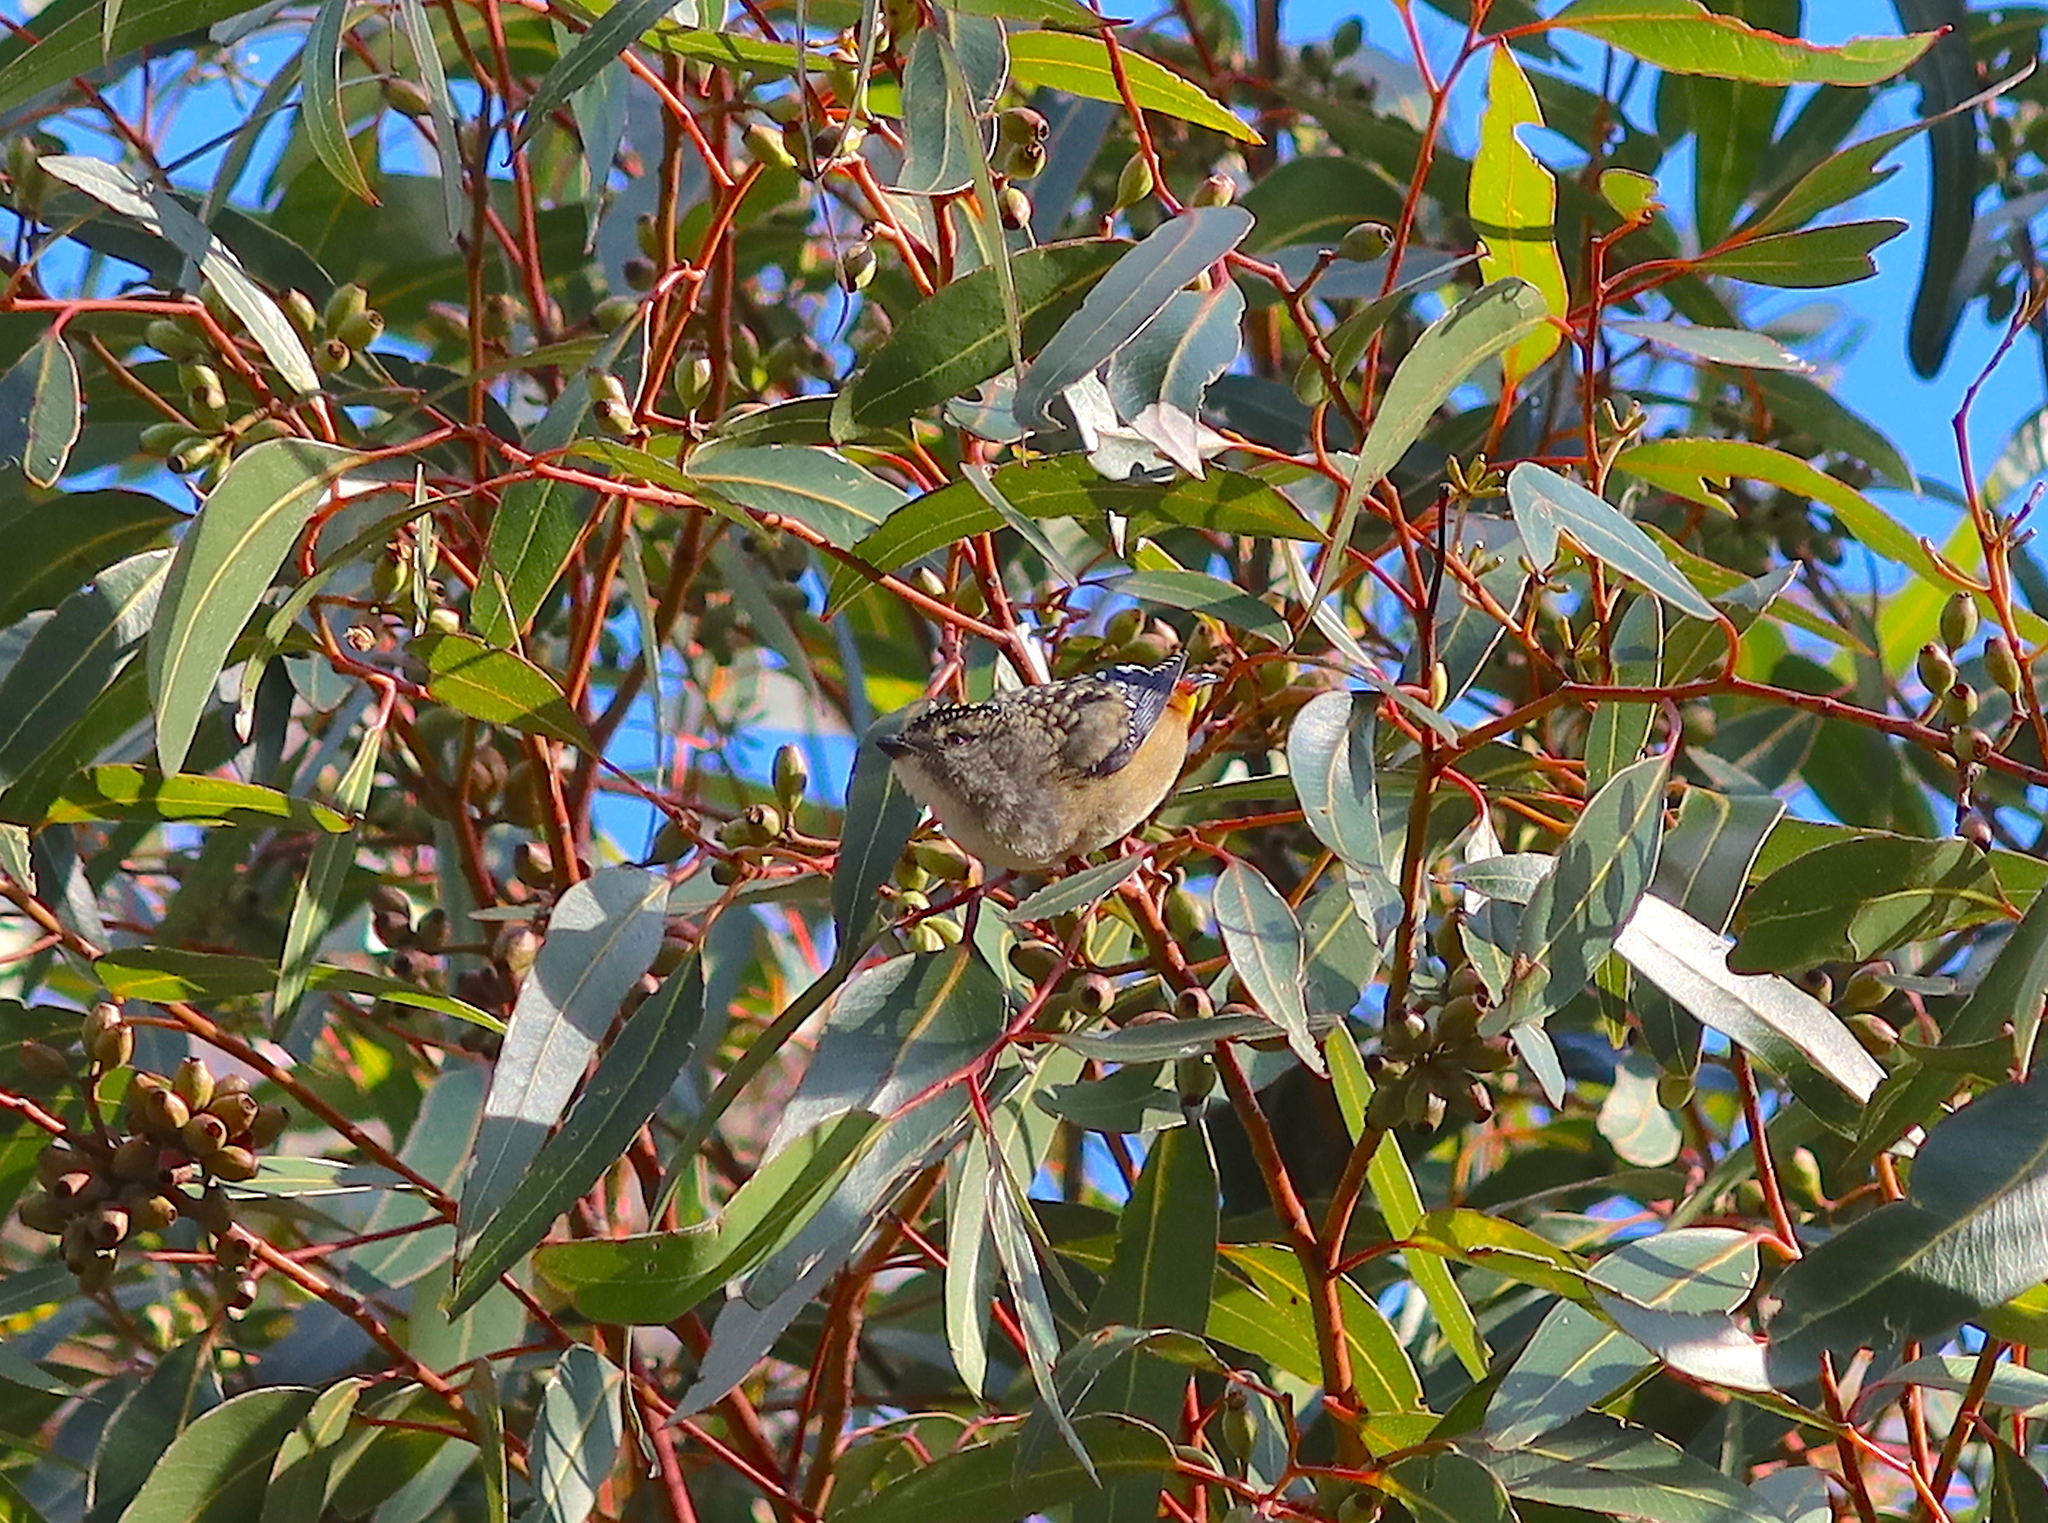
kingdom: Animalia
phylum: Chordata
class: Aves
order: Passeriformes
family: Pardalotidae
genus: Pardalotus
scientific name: Pardalotus punctatus
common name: Spotted pardalote
